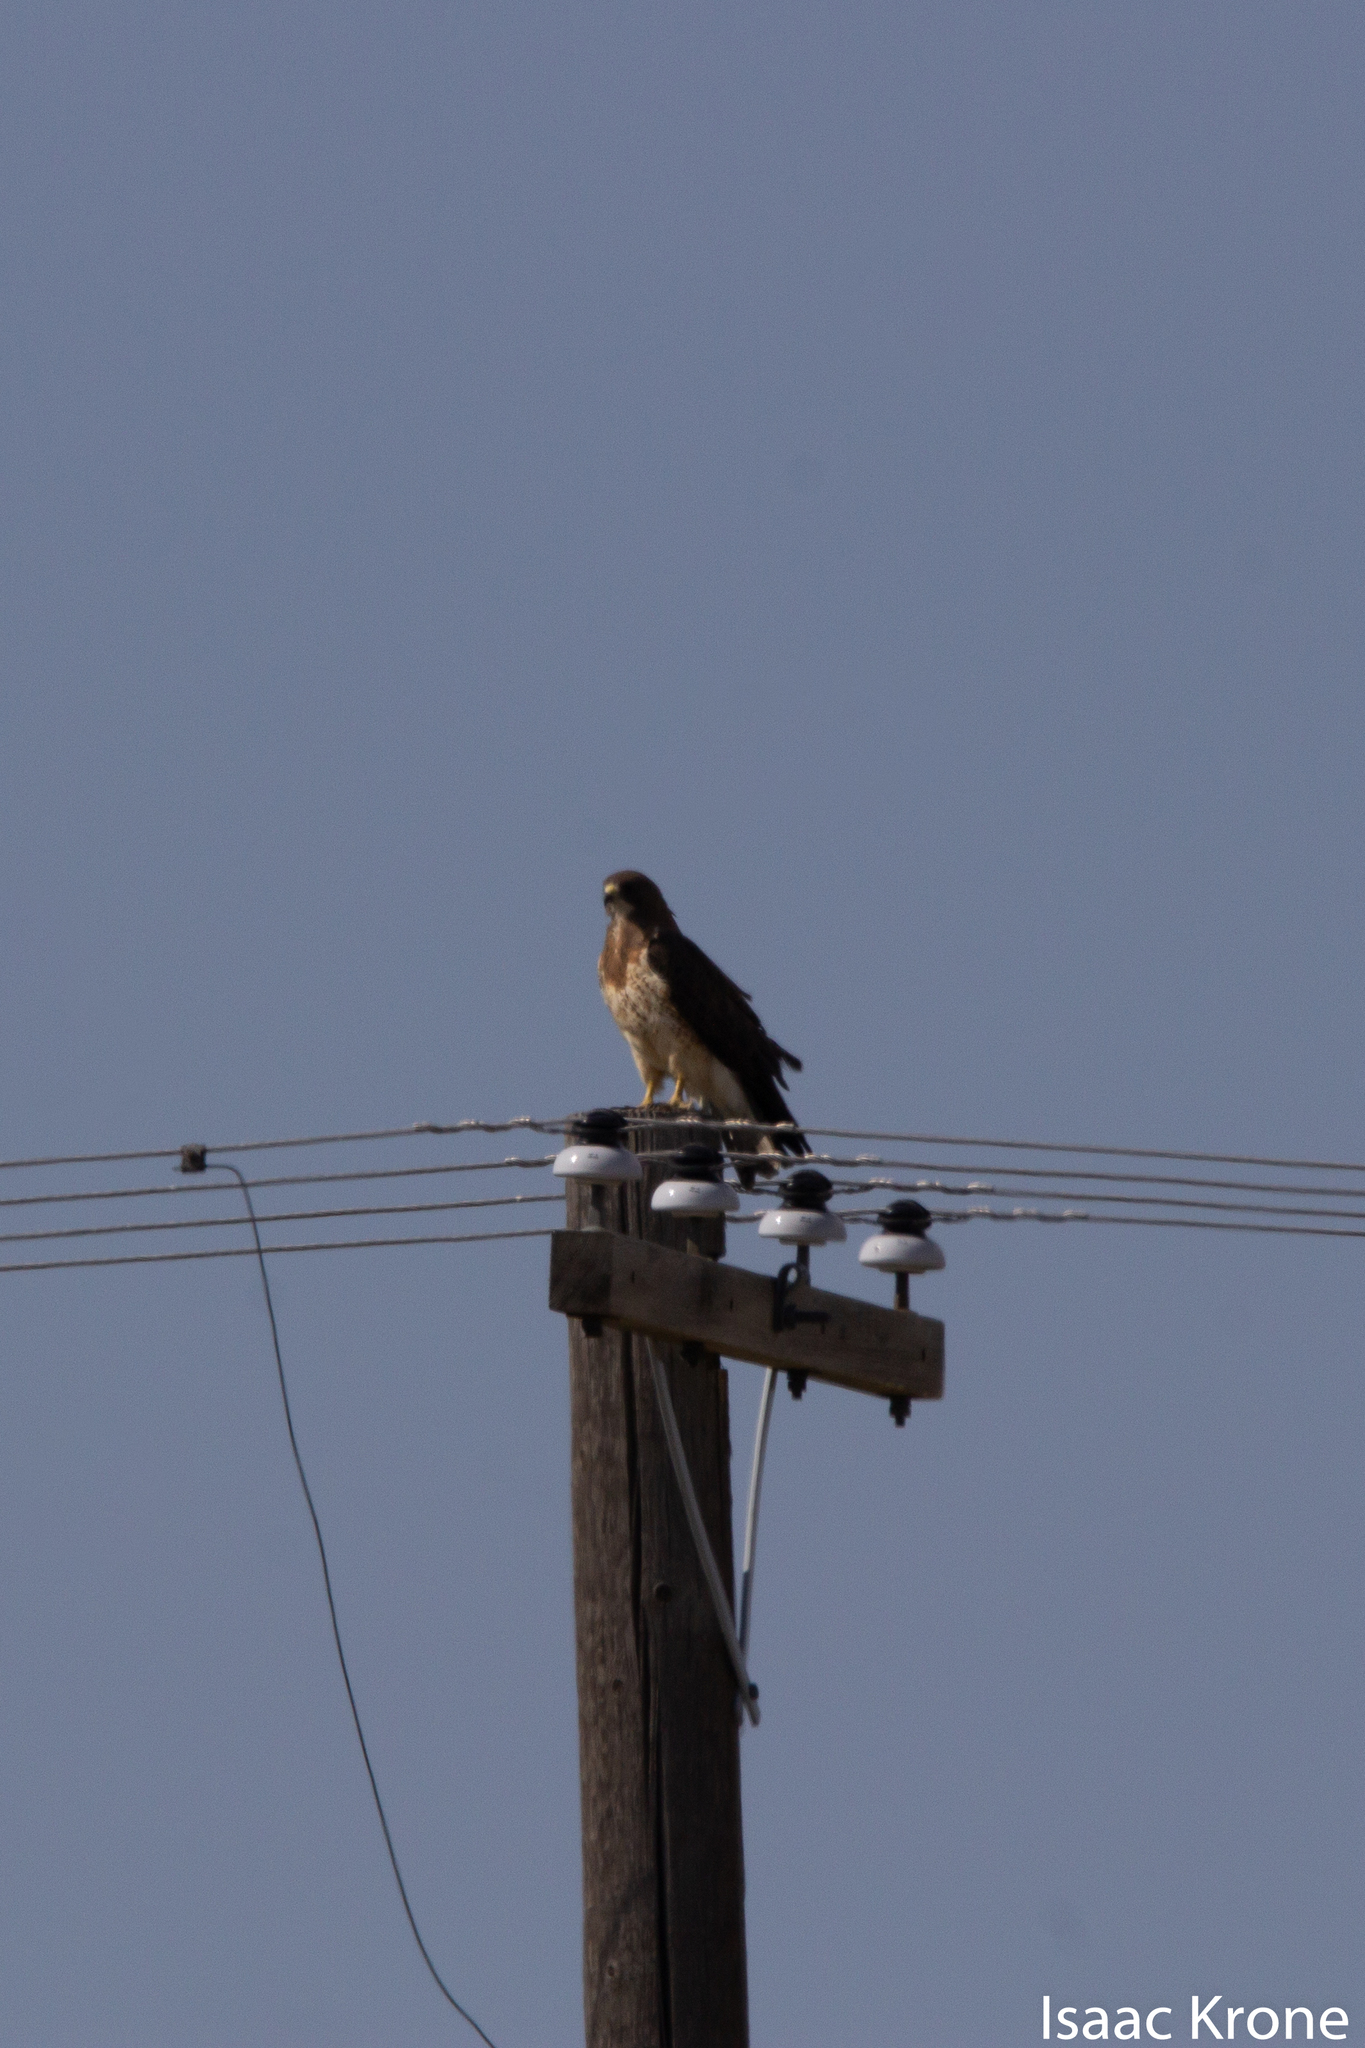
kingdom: Animalia
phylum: Chordata
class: Aves
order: Accipitriformes
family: Accipitridae
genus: Buteo
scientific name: Buteo swainsoni
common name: Swainson's hawk
